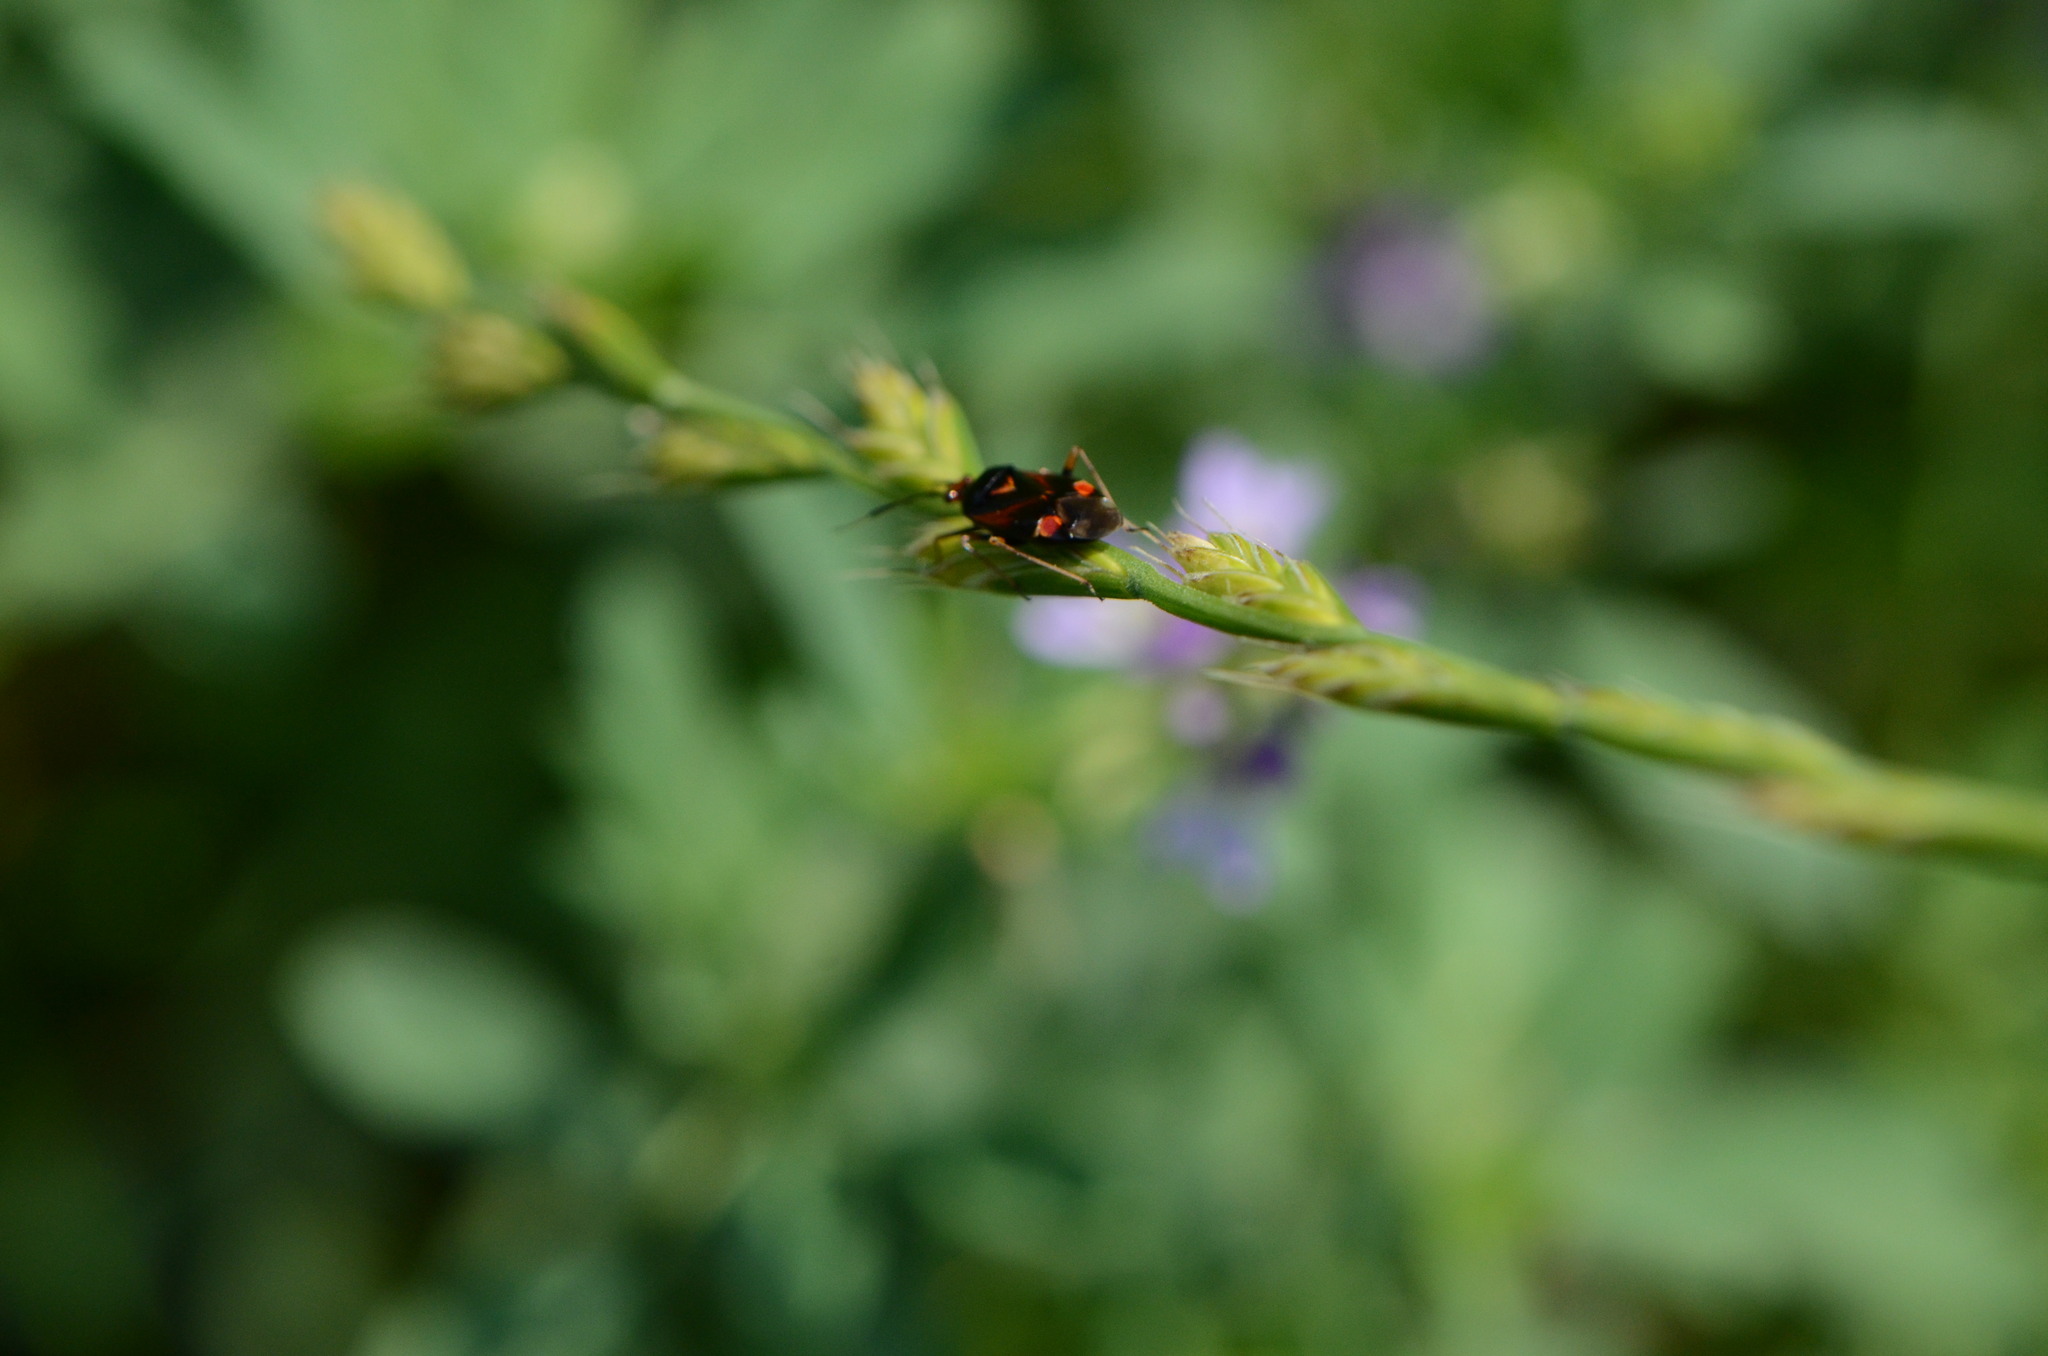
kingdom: Animalia
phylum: Arthropoda
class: Insecta
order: Hemiptera
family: Miridae
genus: Deraeocoris
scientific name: Deraeocoris ruber
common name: Plant bug
